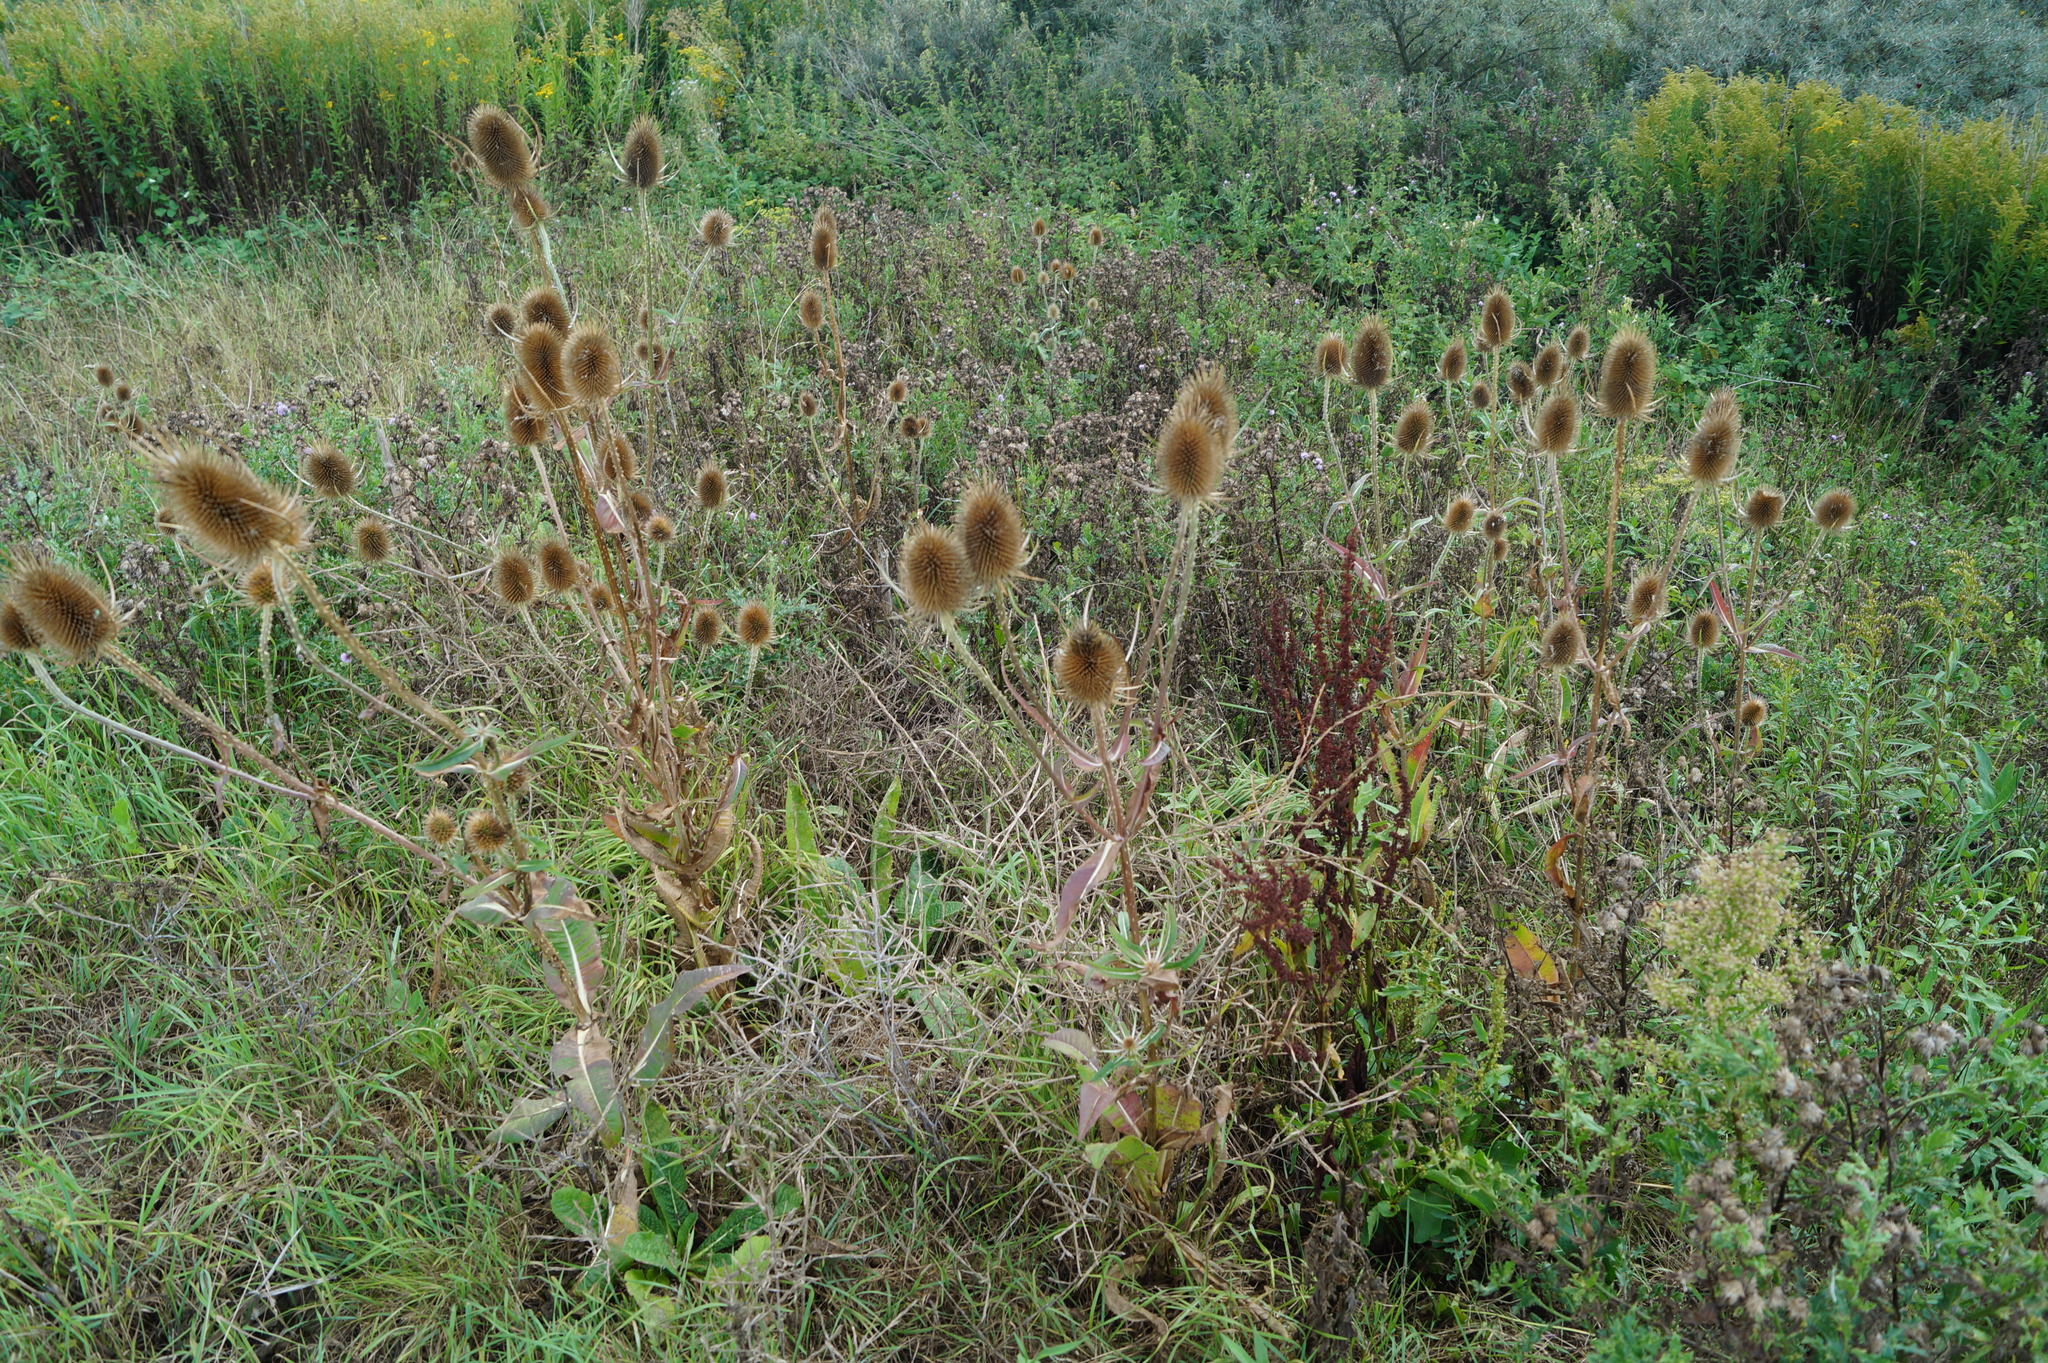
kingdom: Plantae
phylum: Tracheophyta
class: Magnoliopsida
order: Dipsacales
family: Caprifoliaceae
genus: Dipsacus
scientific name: Dipsacus fullonum
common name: Teasel
